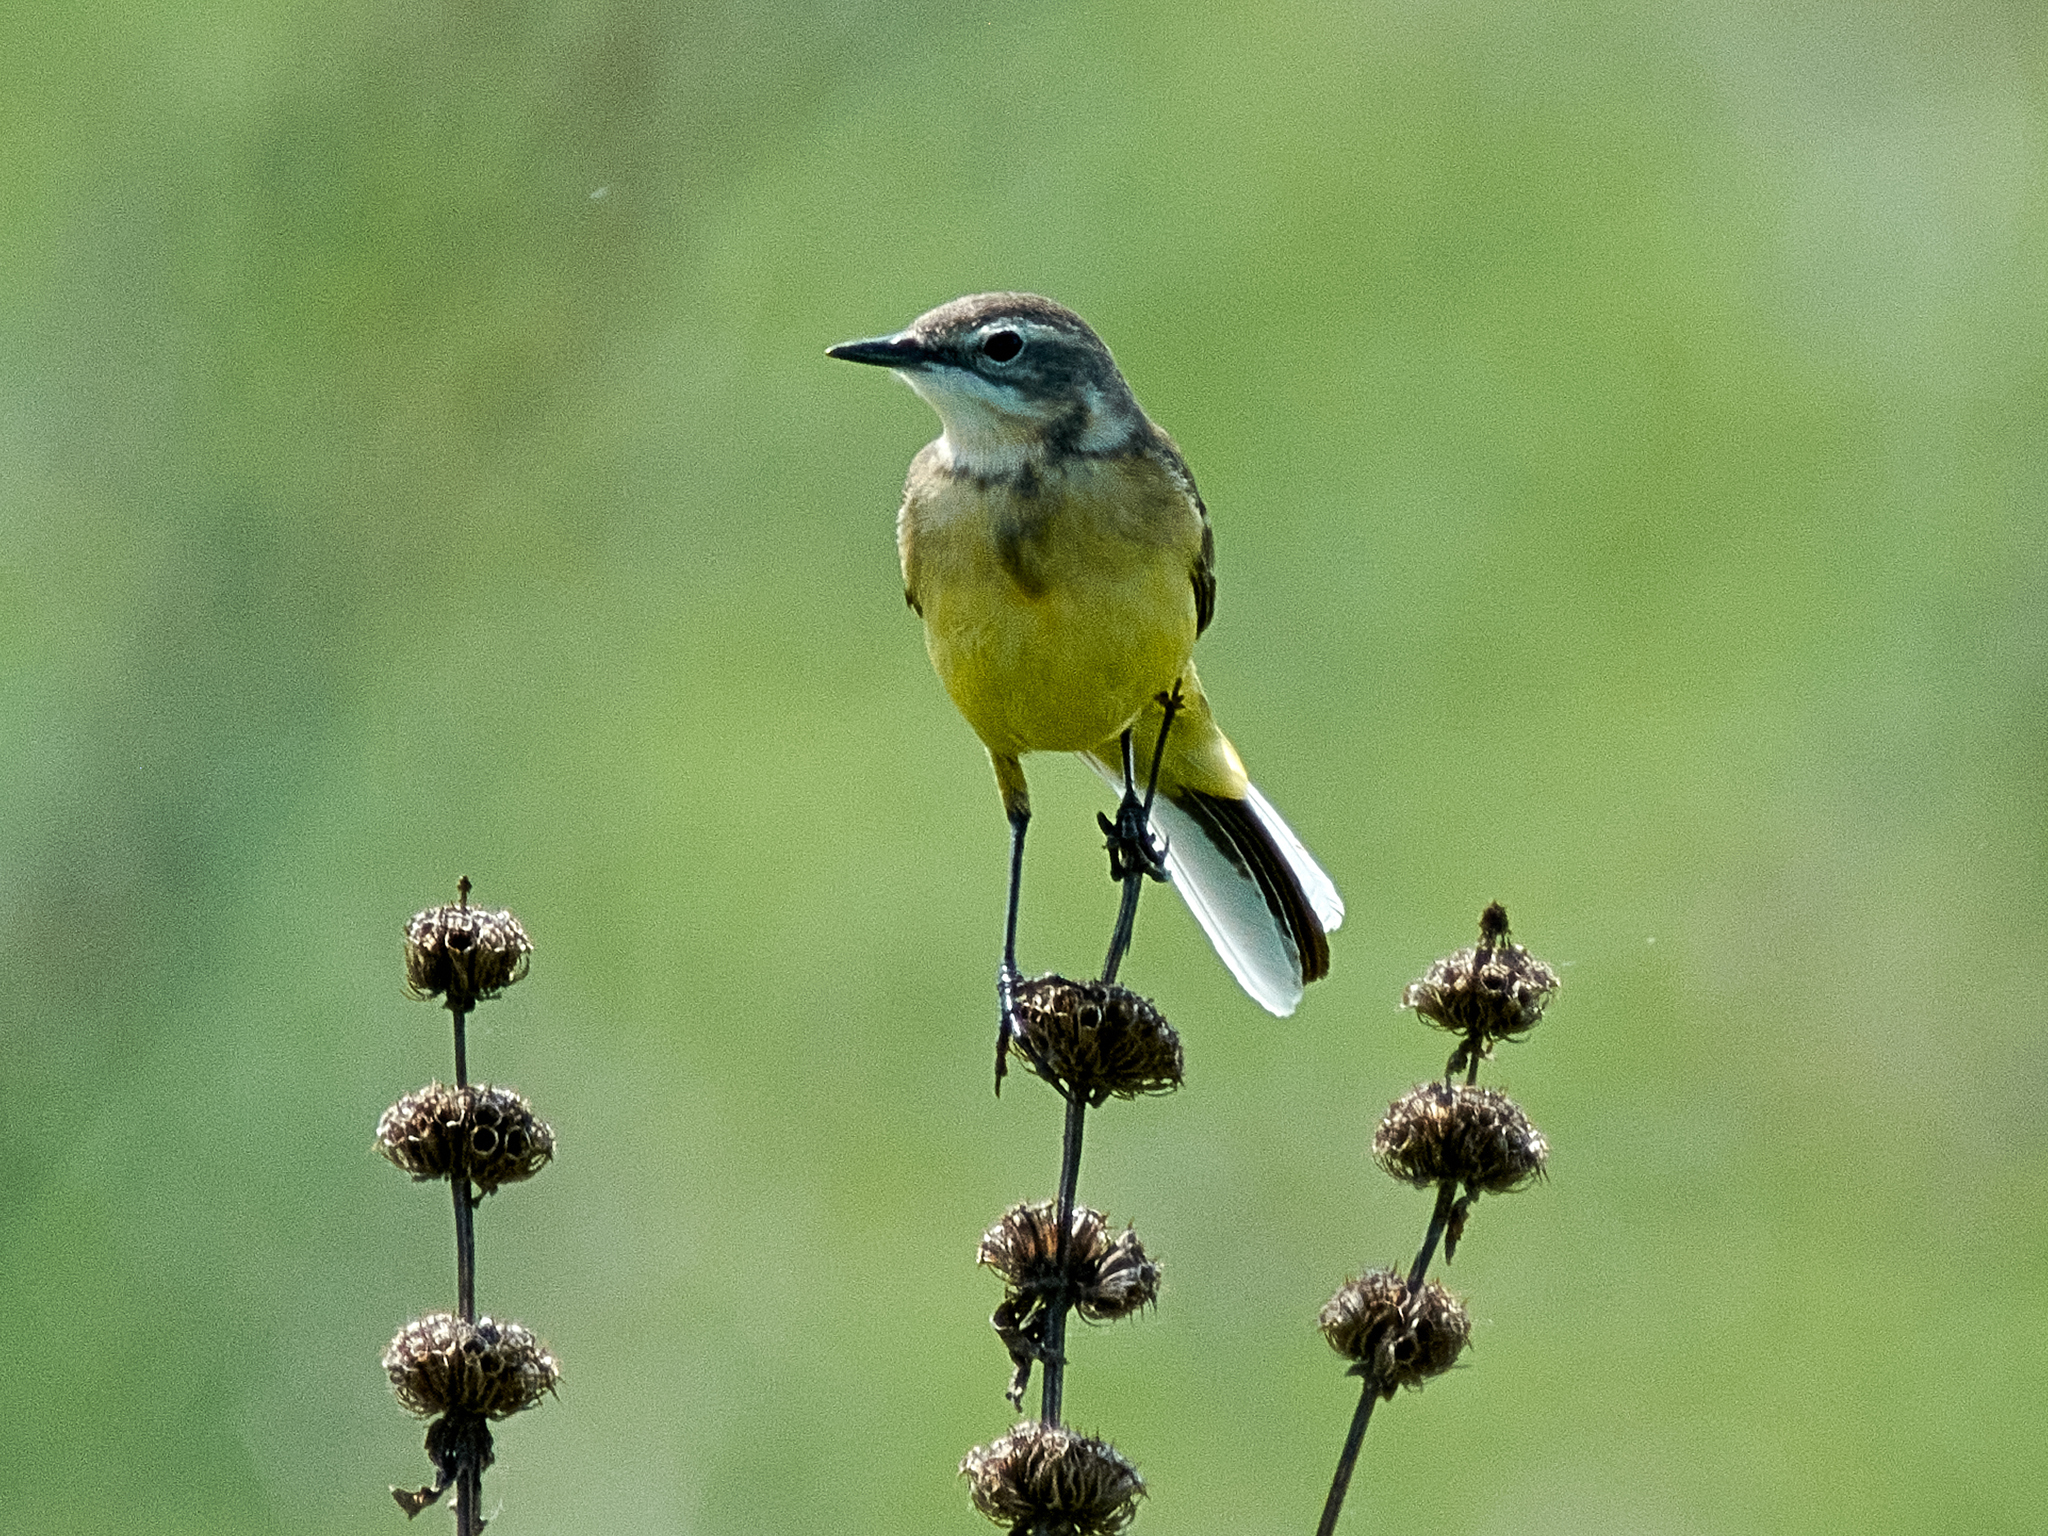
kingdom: Animalia
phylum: Chordata
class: Aves
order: Passeriformes
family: Motacillidae
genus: Motacilla
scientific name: Motacilla flava
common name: Western yellow wagtail
